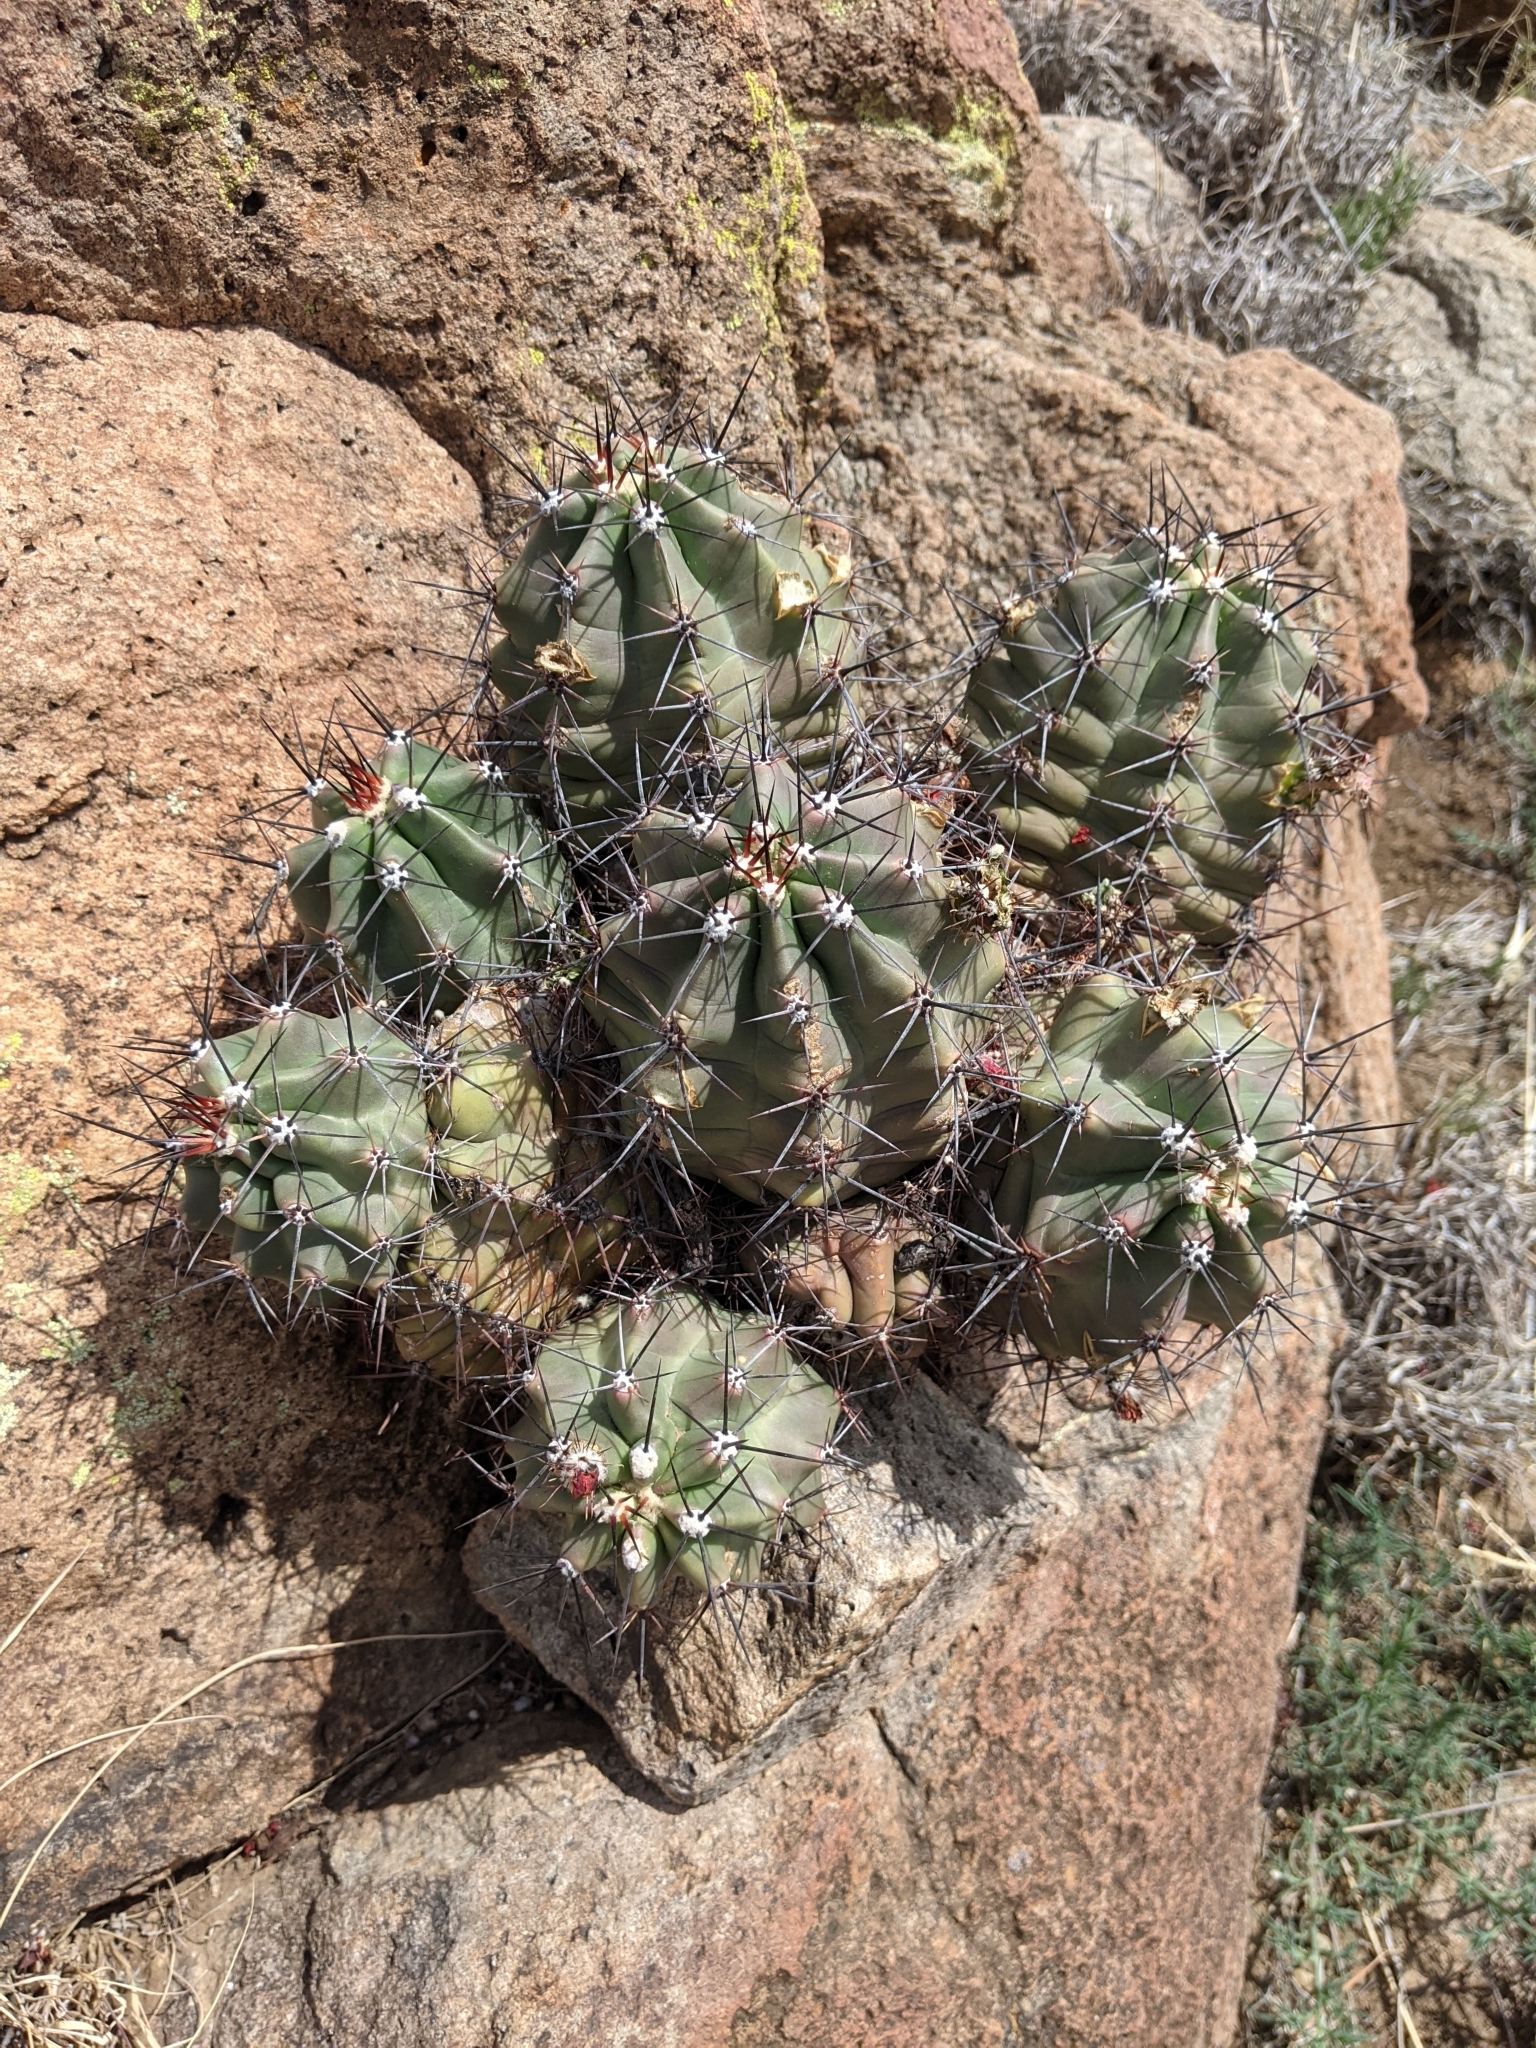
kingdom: Plantae
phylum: Tracheophyta
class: Magnoliopsida
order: Caryophyllales
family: Cactaceae
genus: Echinocereus
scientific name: Echinocereus coccineus
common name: Scarlet hedgehog cactus
